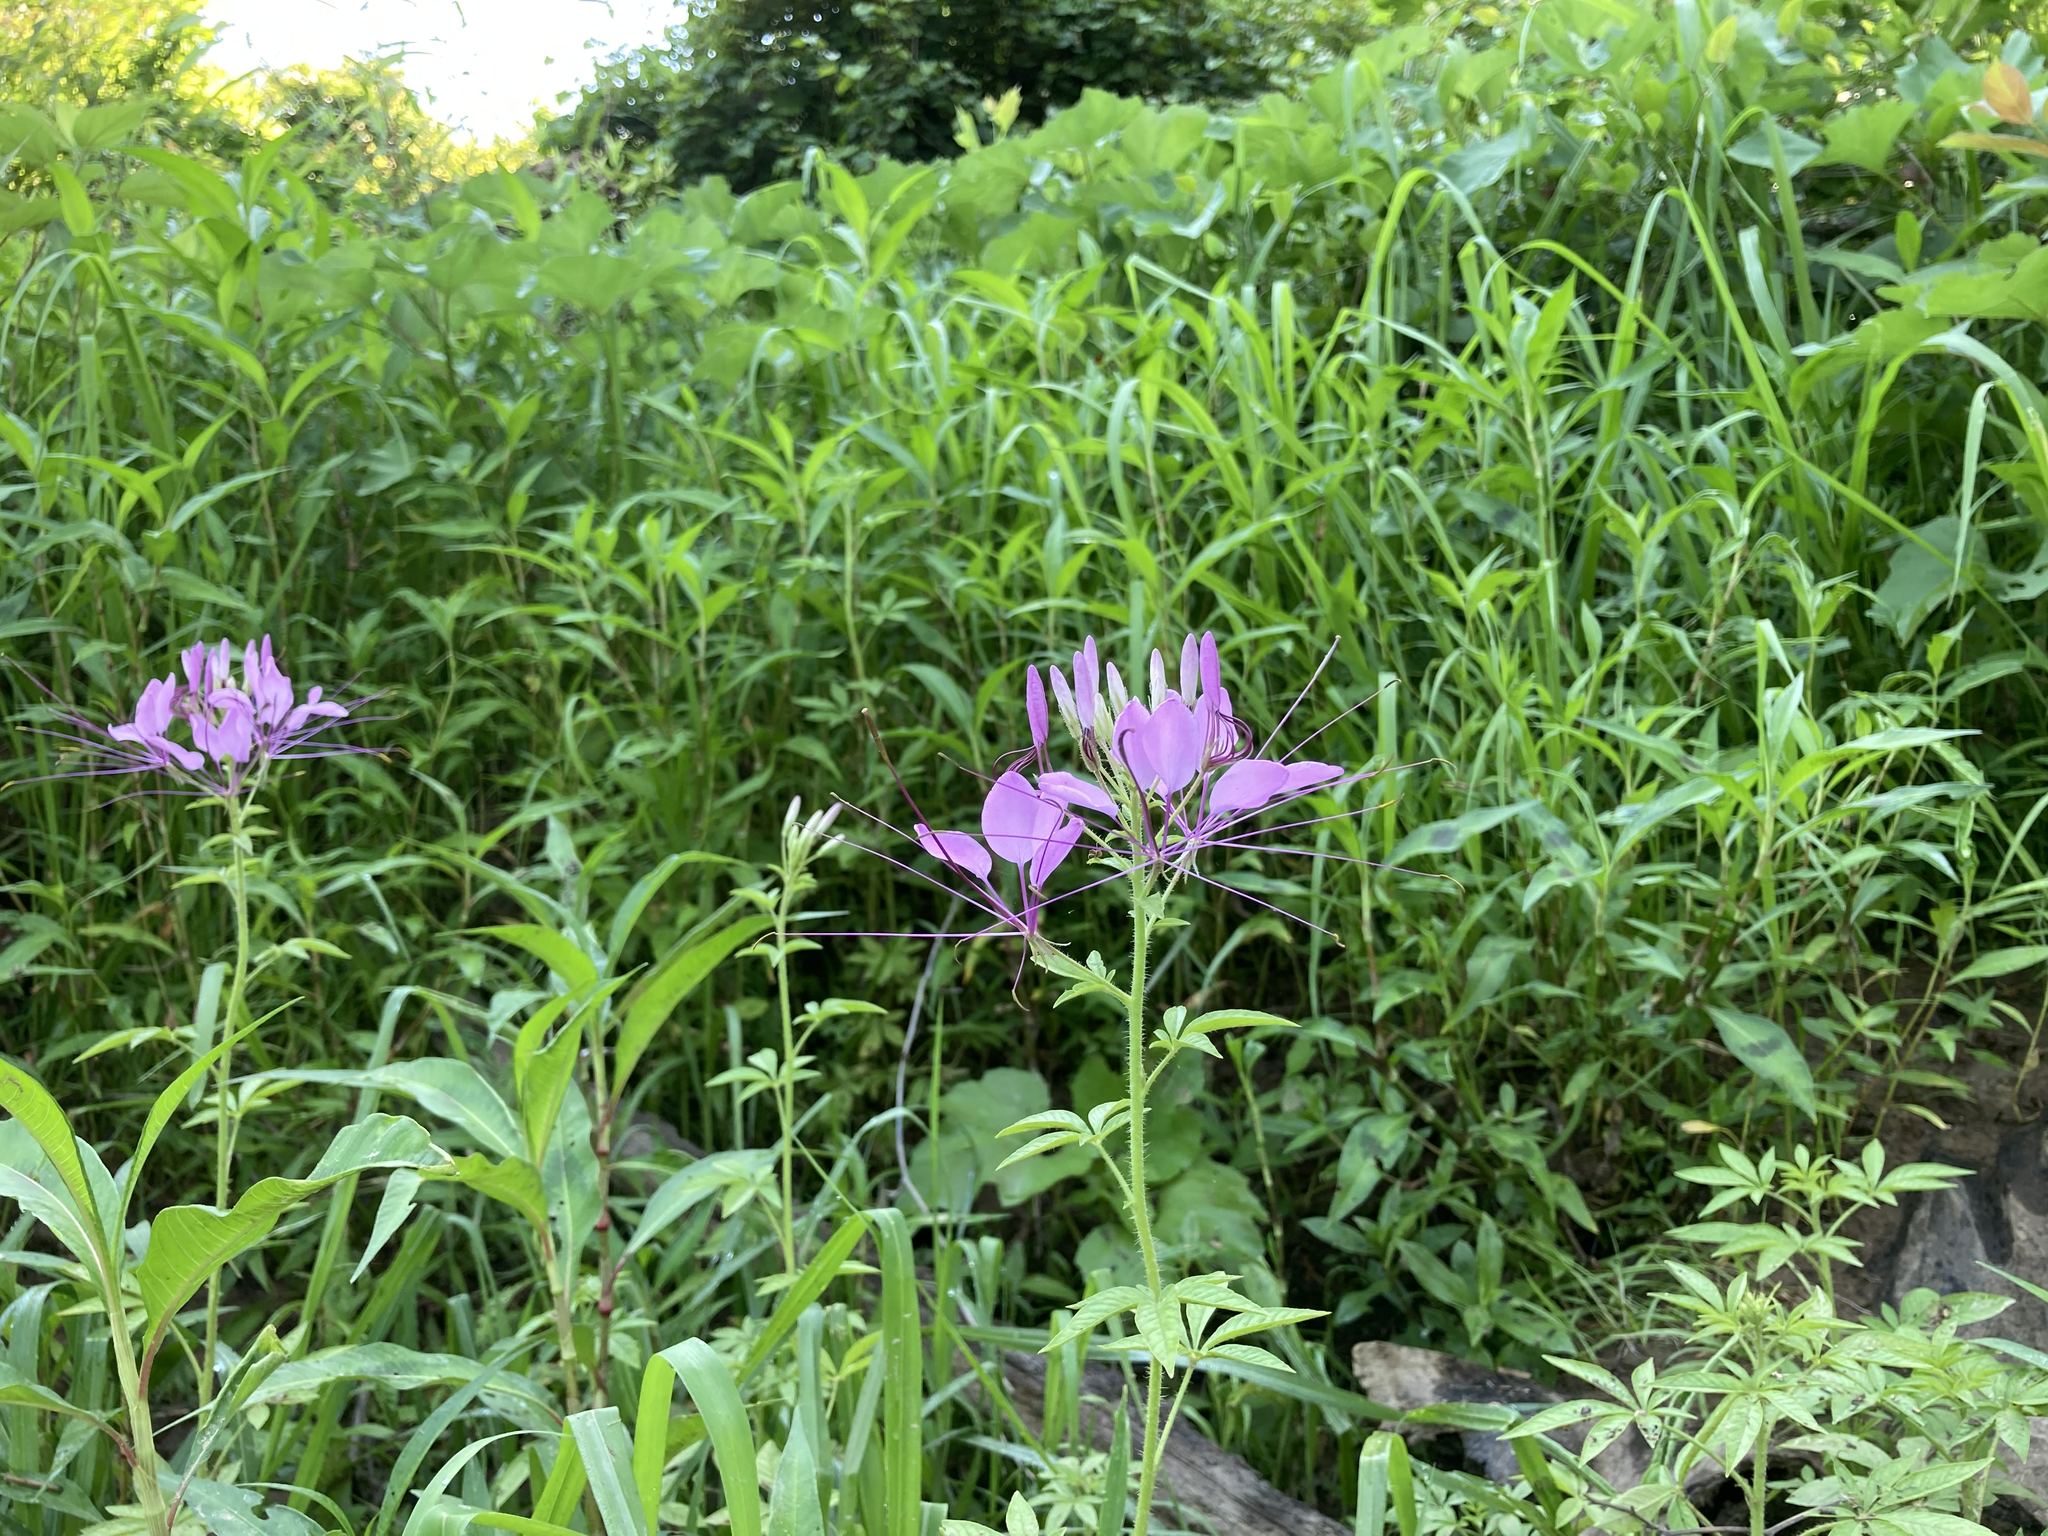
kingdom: Plantae
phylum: Tracheophyta
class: Magnoliopsida
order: Brassicales
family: Cleomaceae
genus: Tarenaya
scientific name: Tarenaya houtteana
